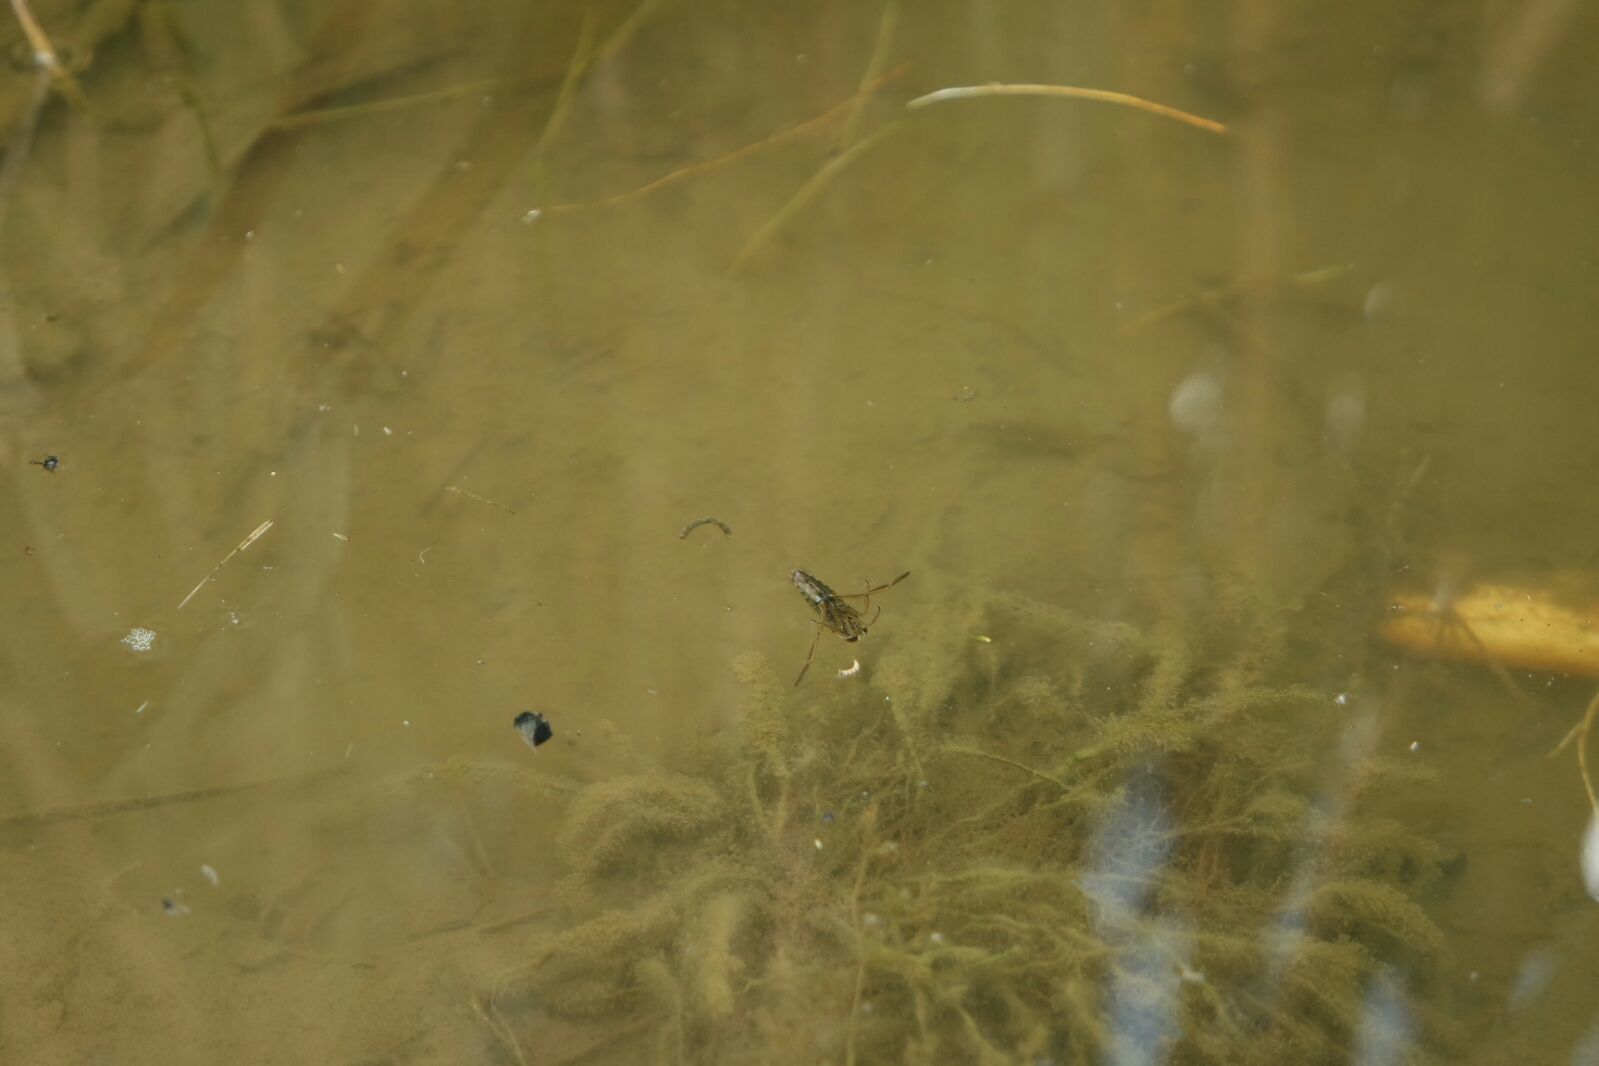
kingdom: Animalia
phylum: Arthropoda
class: Insecta
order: Hemiptera
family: Notonectidae
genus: Notonecta
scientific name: Notonecta
